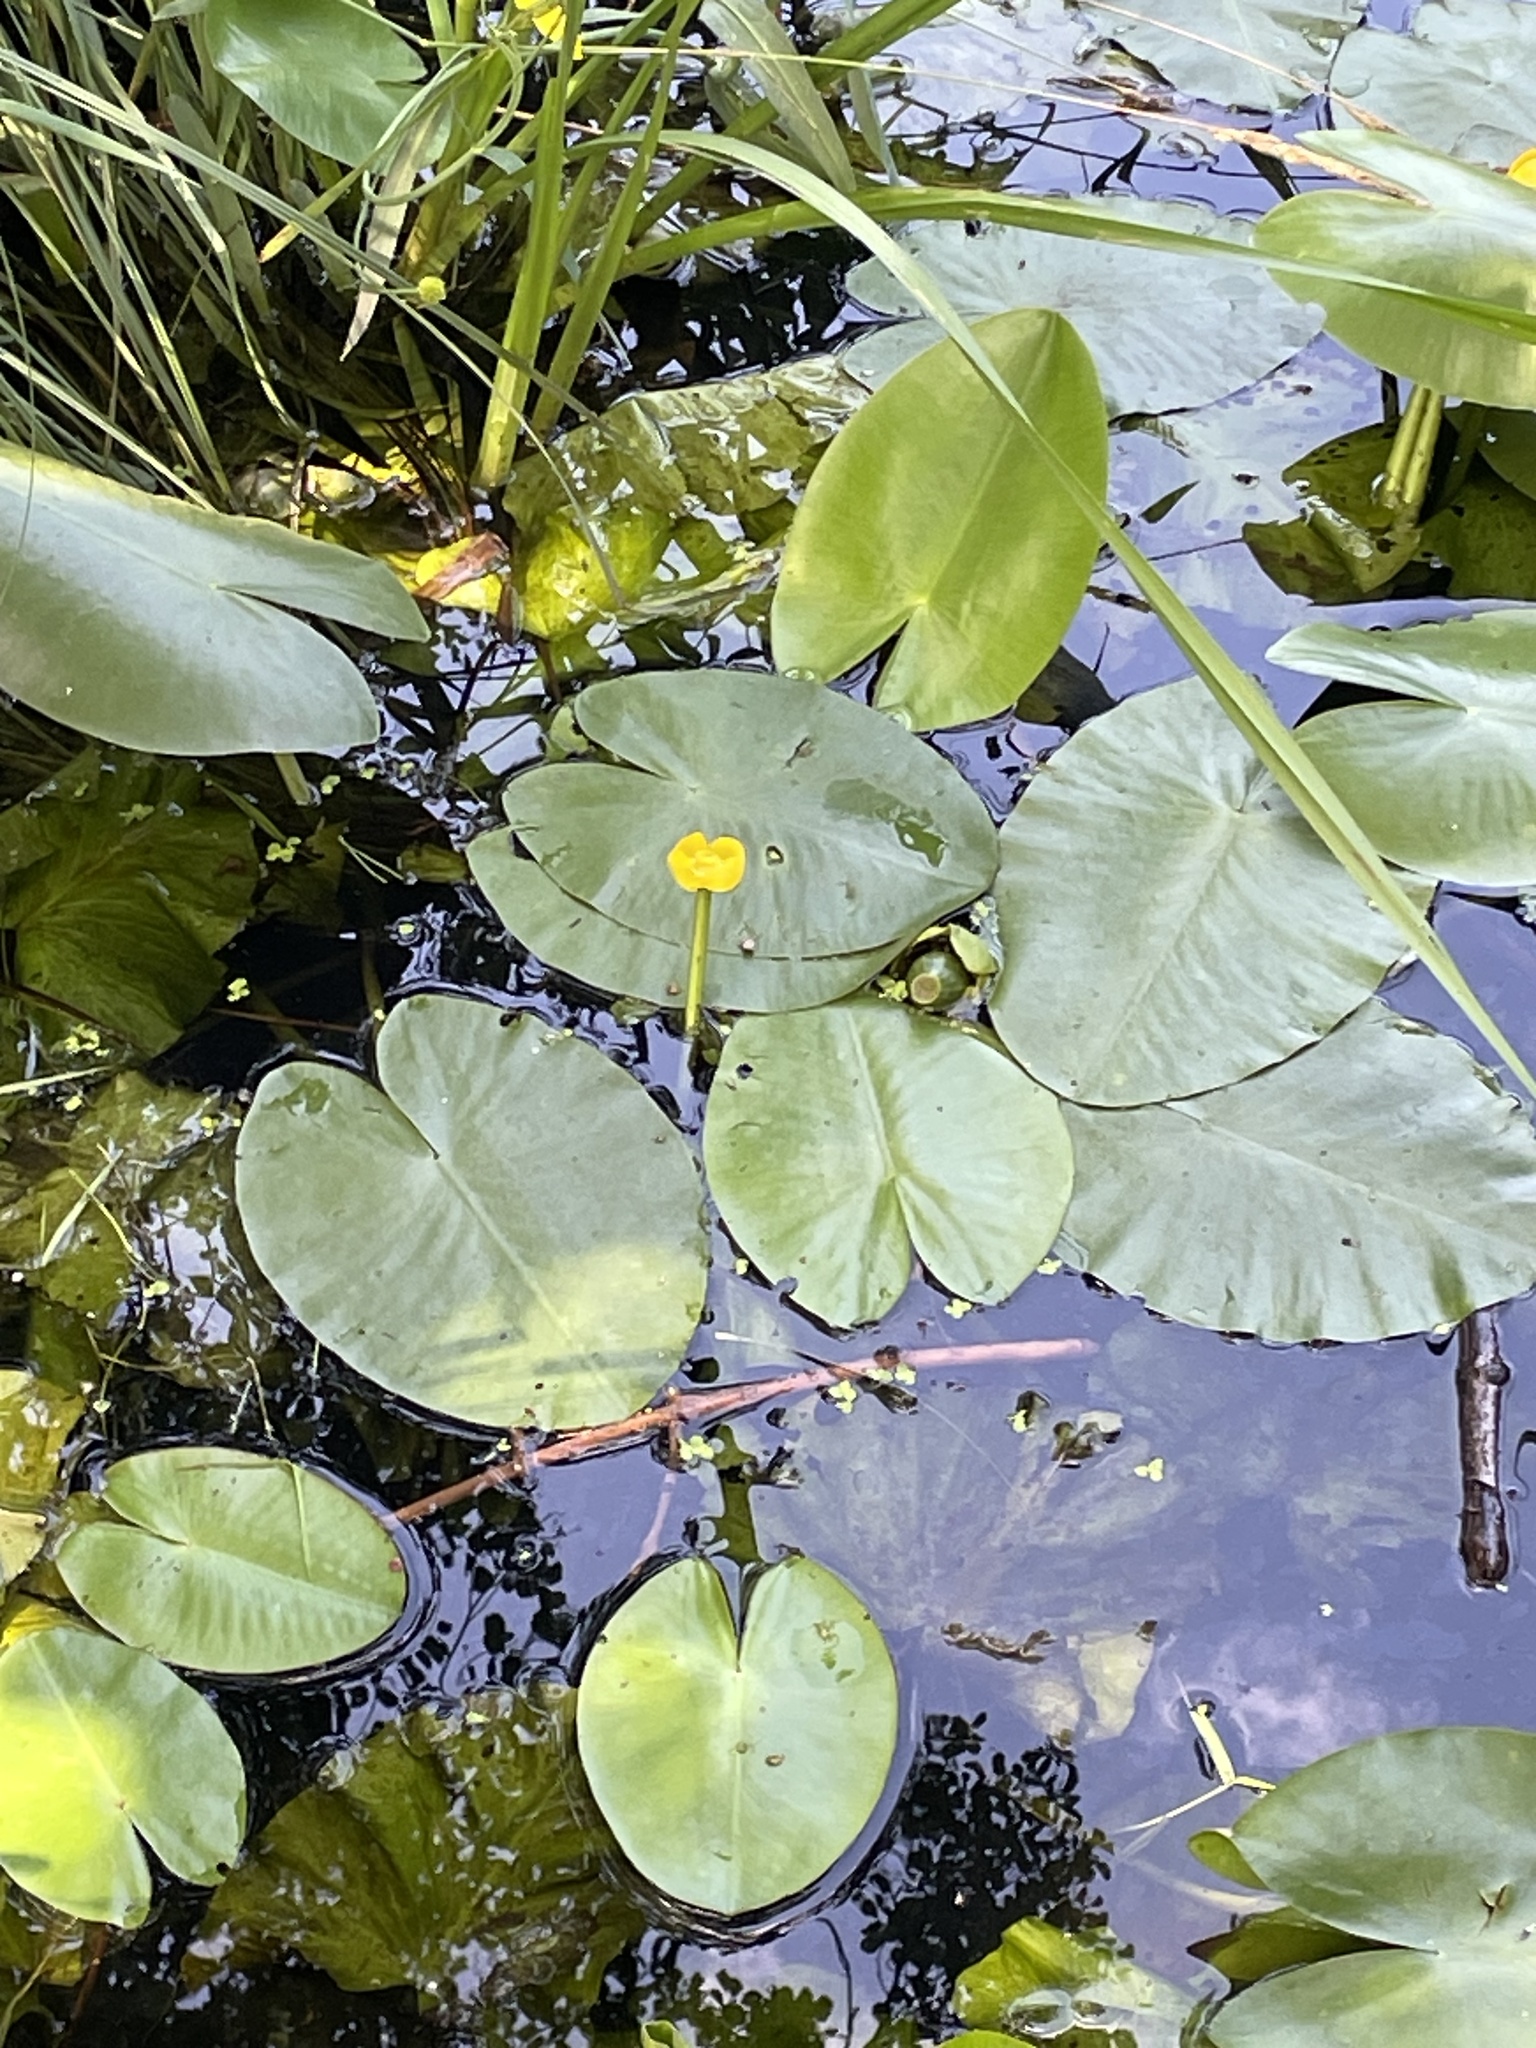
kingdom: Plantae
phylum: Tracheophyta
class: Magnoliopsida
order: Nymphaeales
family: Nymphaeaceae
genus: Nuphar
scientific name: Nuphar lutea
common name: Yellow water-lily
